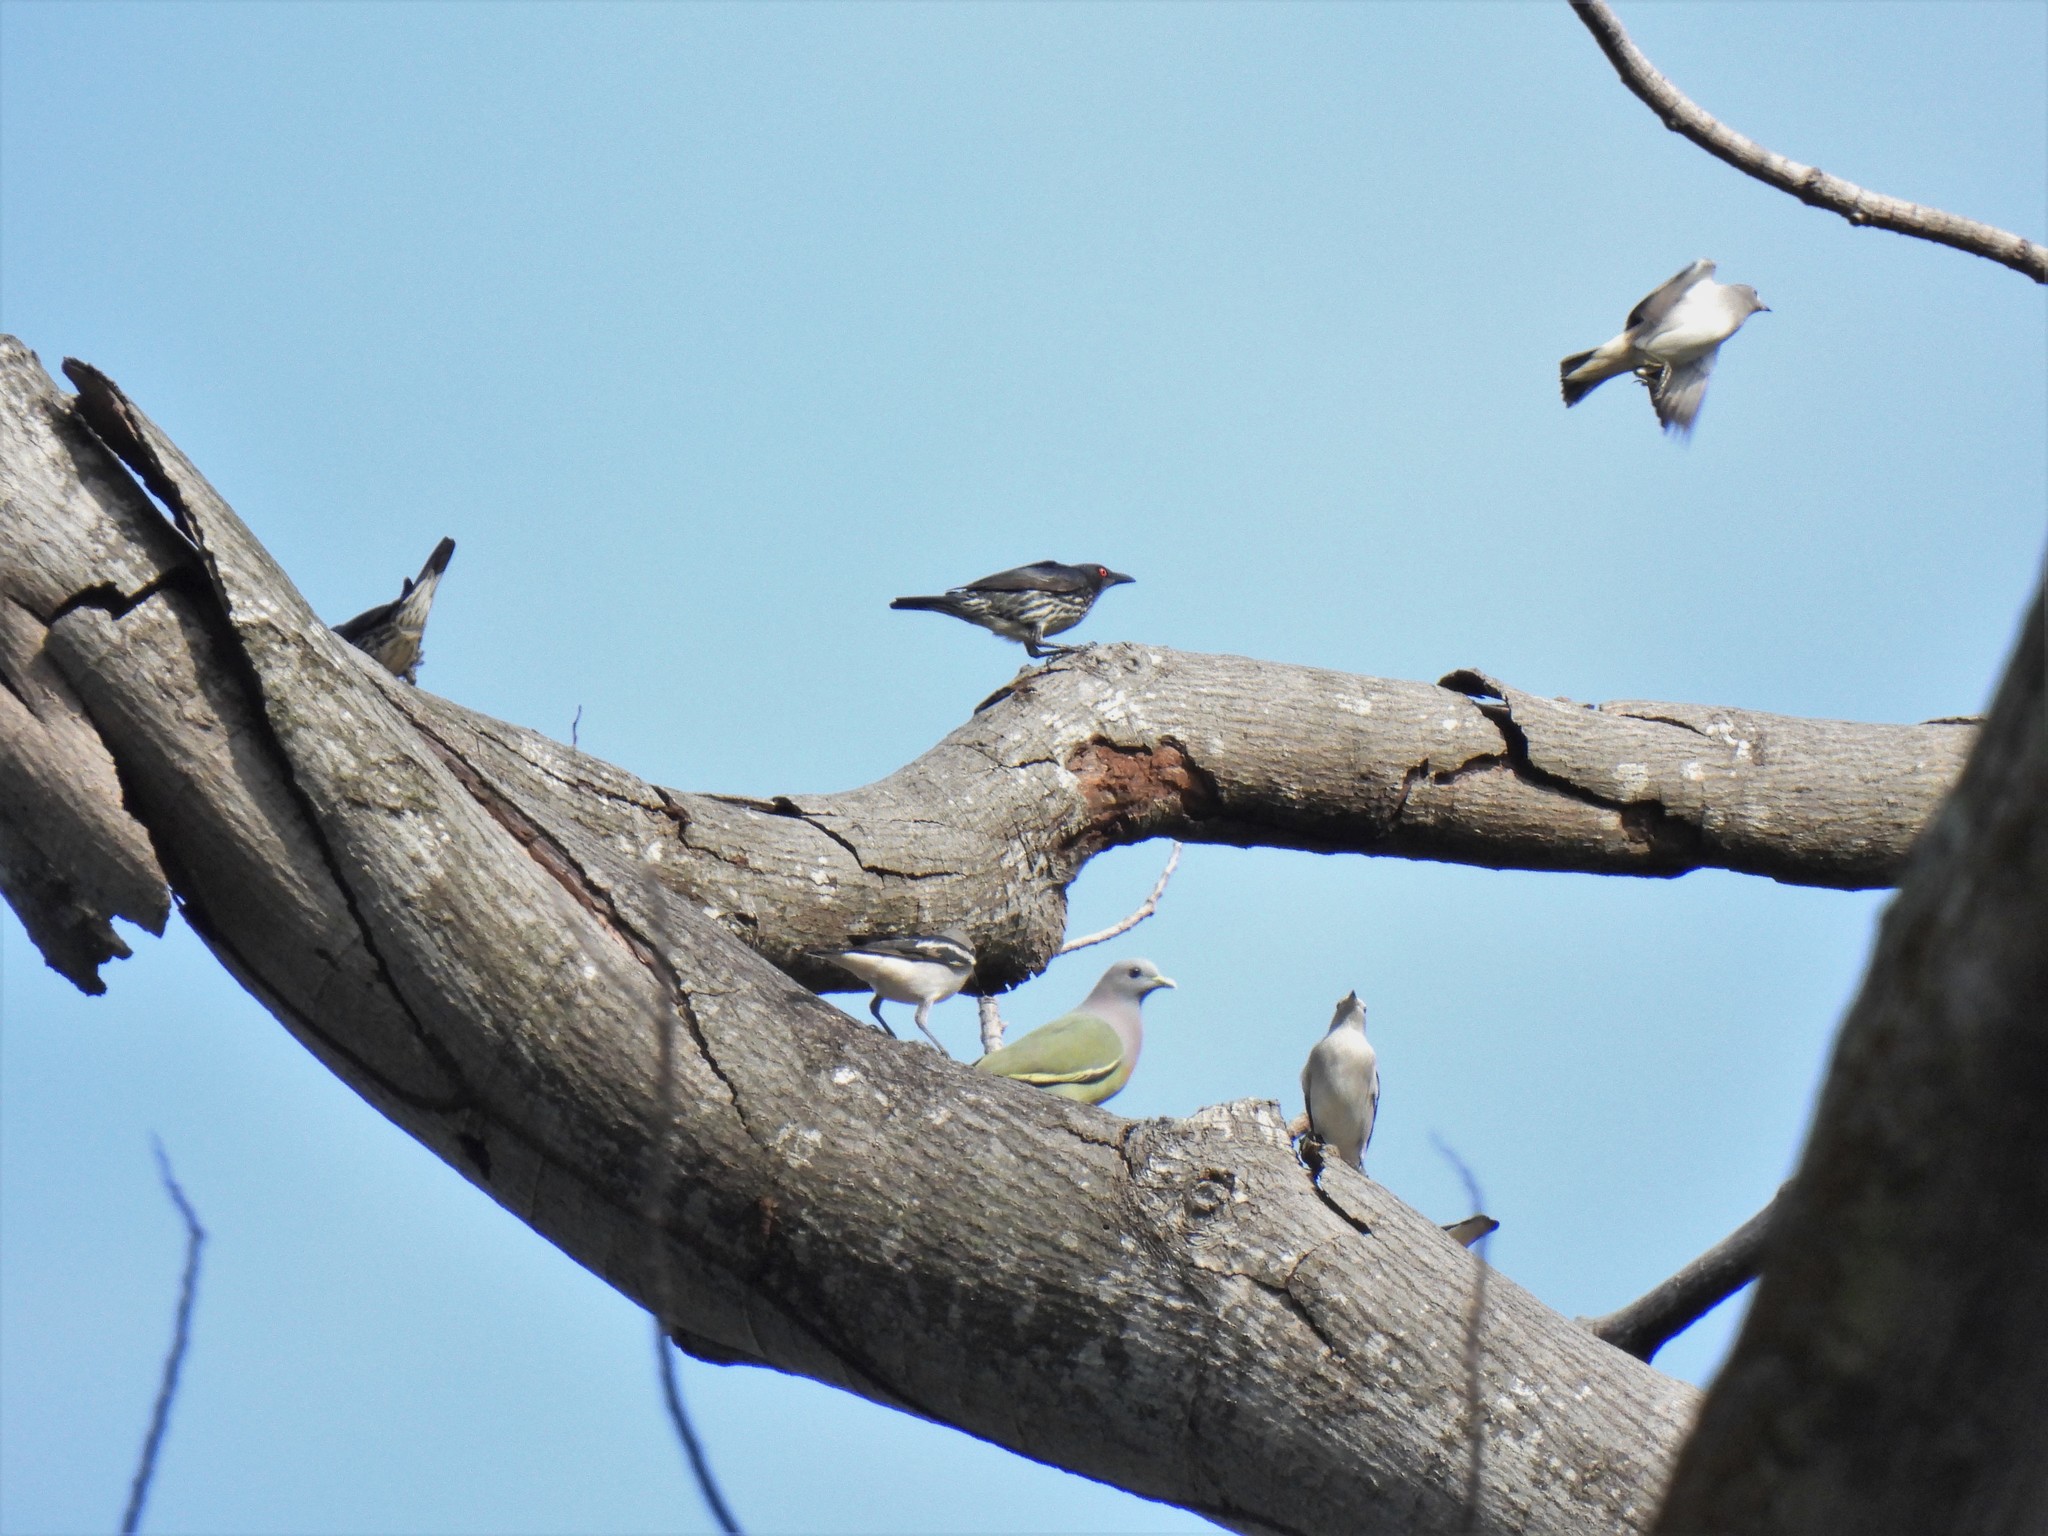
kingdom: Animalia
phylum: Chordata
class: Aves
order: Columbiformes
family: Columbidae
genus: Treron
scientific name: Treron vernans
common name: Pink-necked green pigeon
